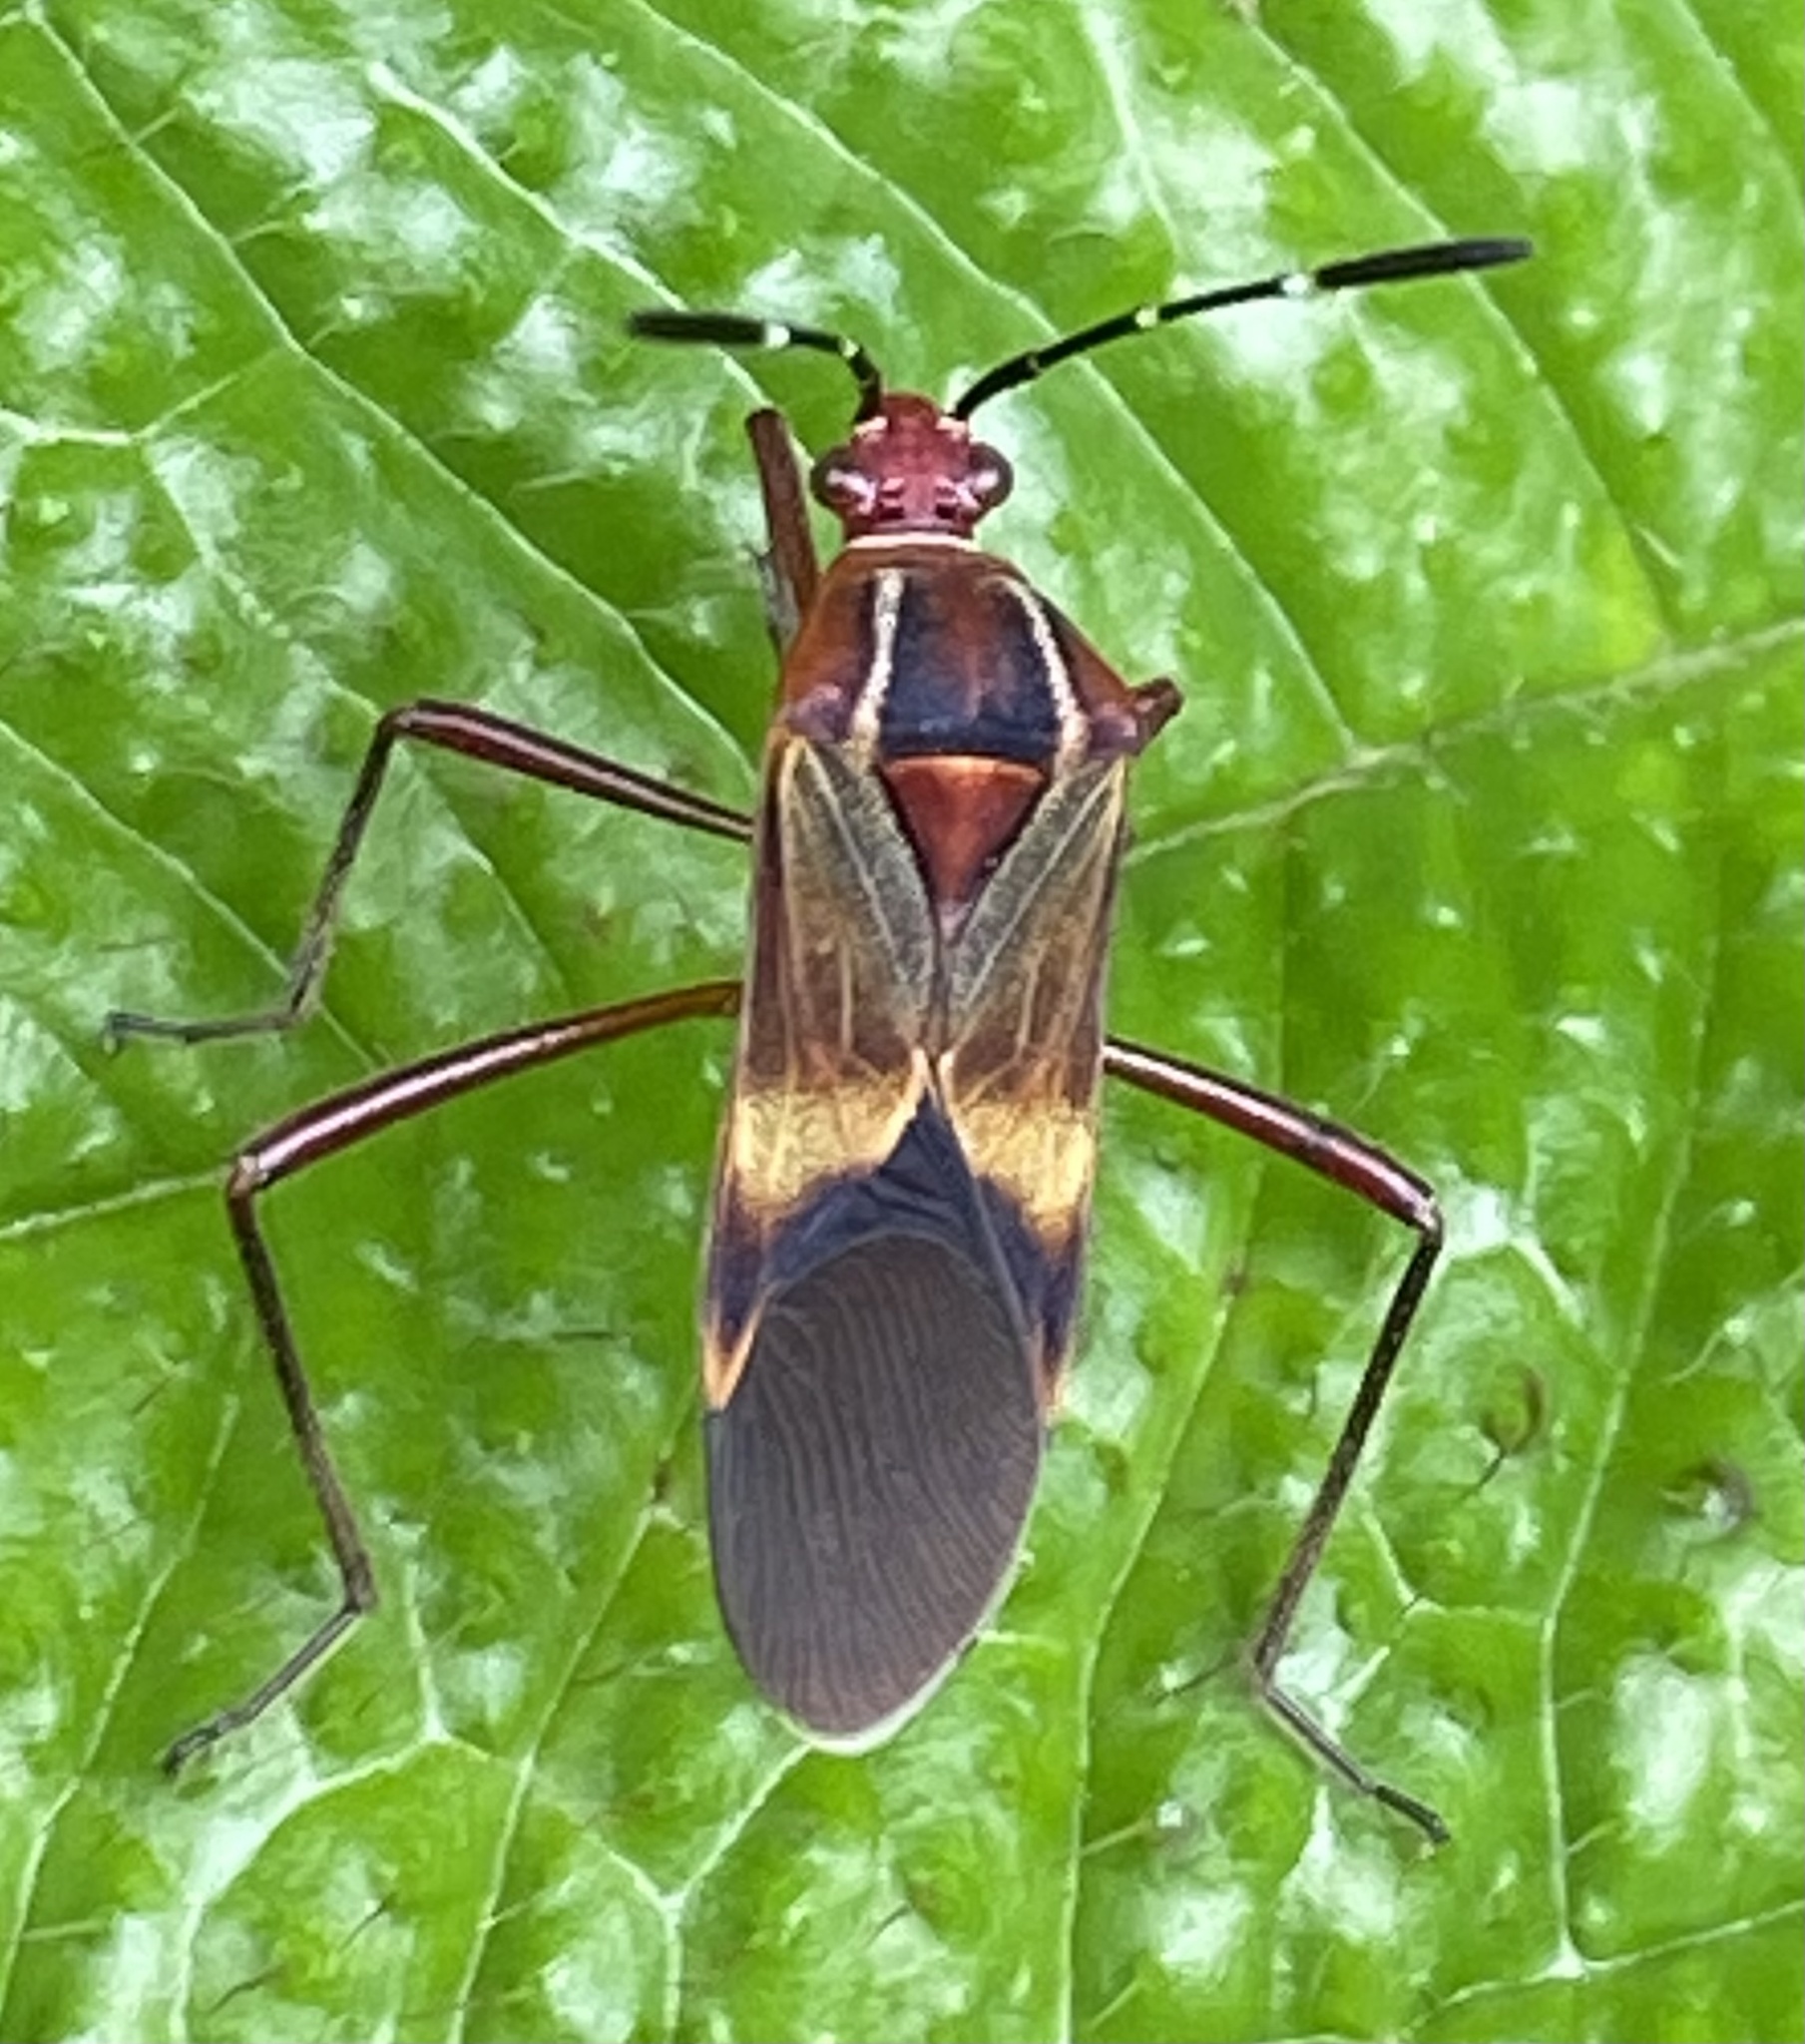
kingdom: Animalia
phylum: Arthropoda
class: Insecta
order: Hemiptera
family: Coreidae
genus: Hypselonotus
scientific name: Hypselonotus interruptus
